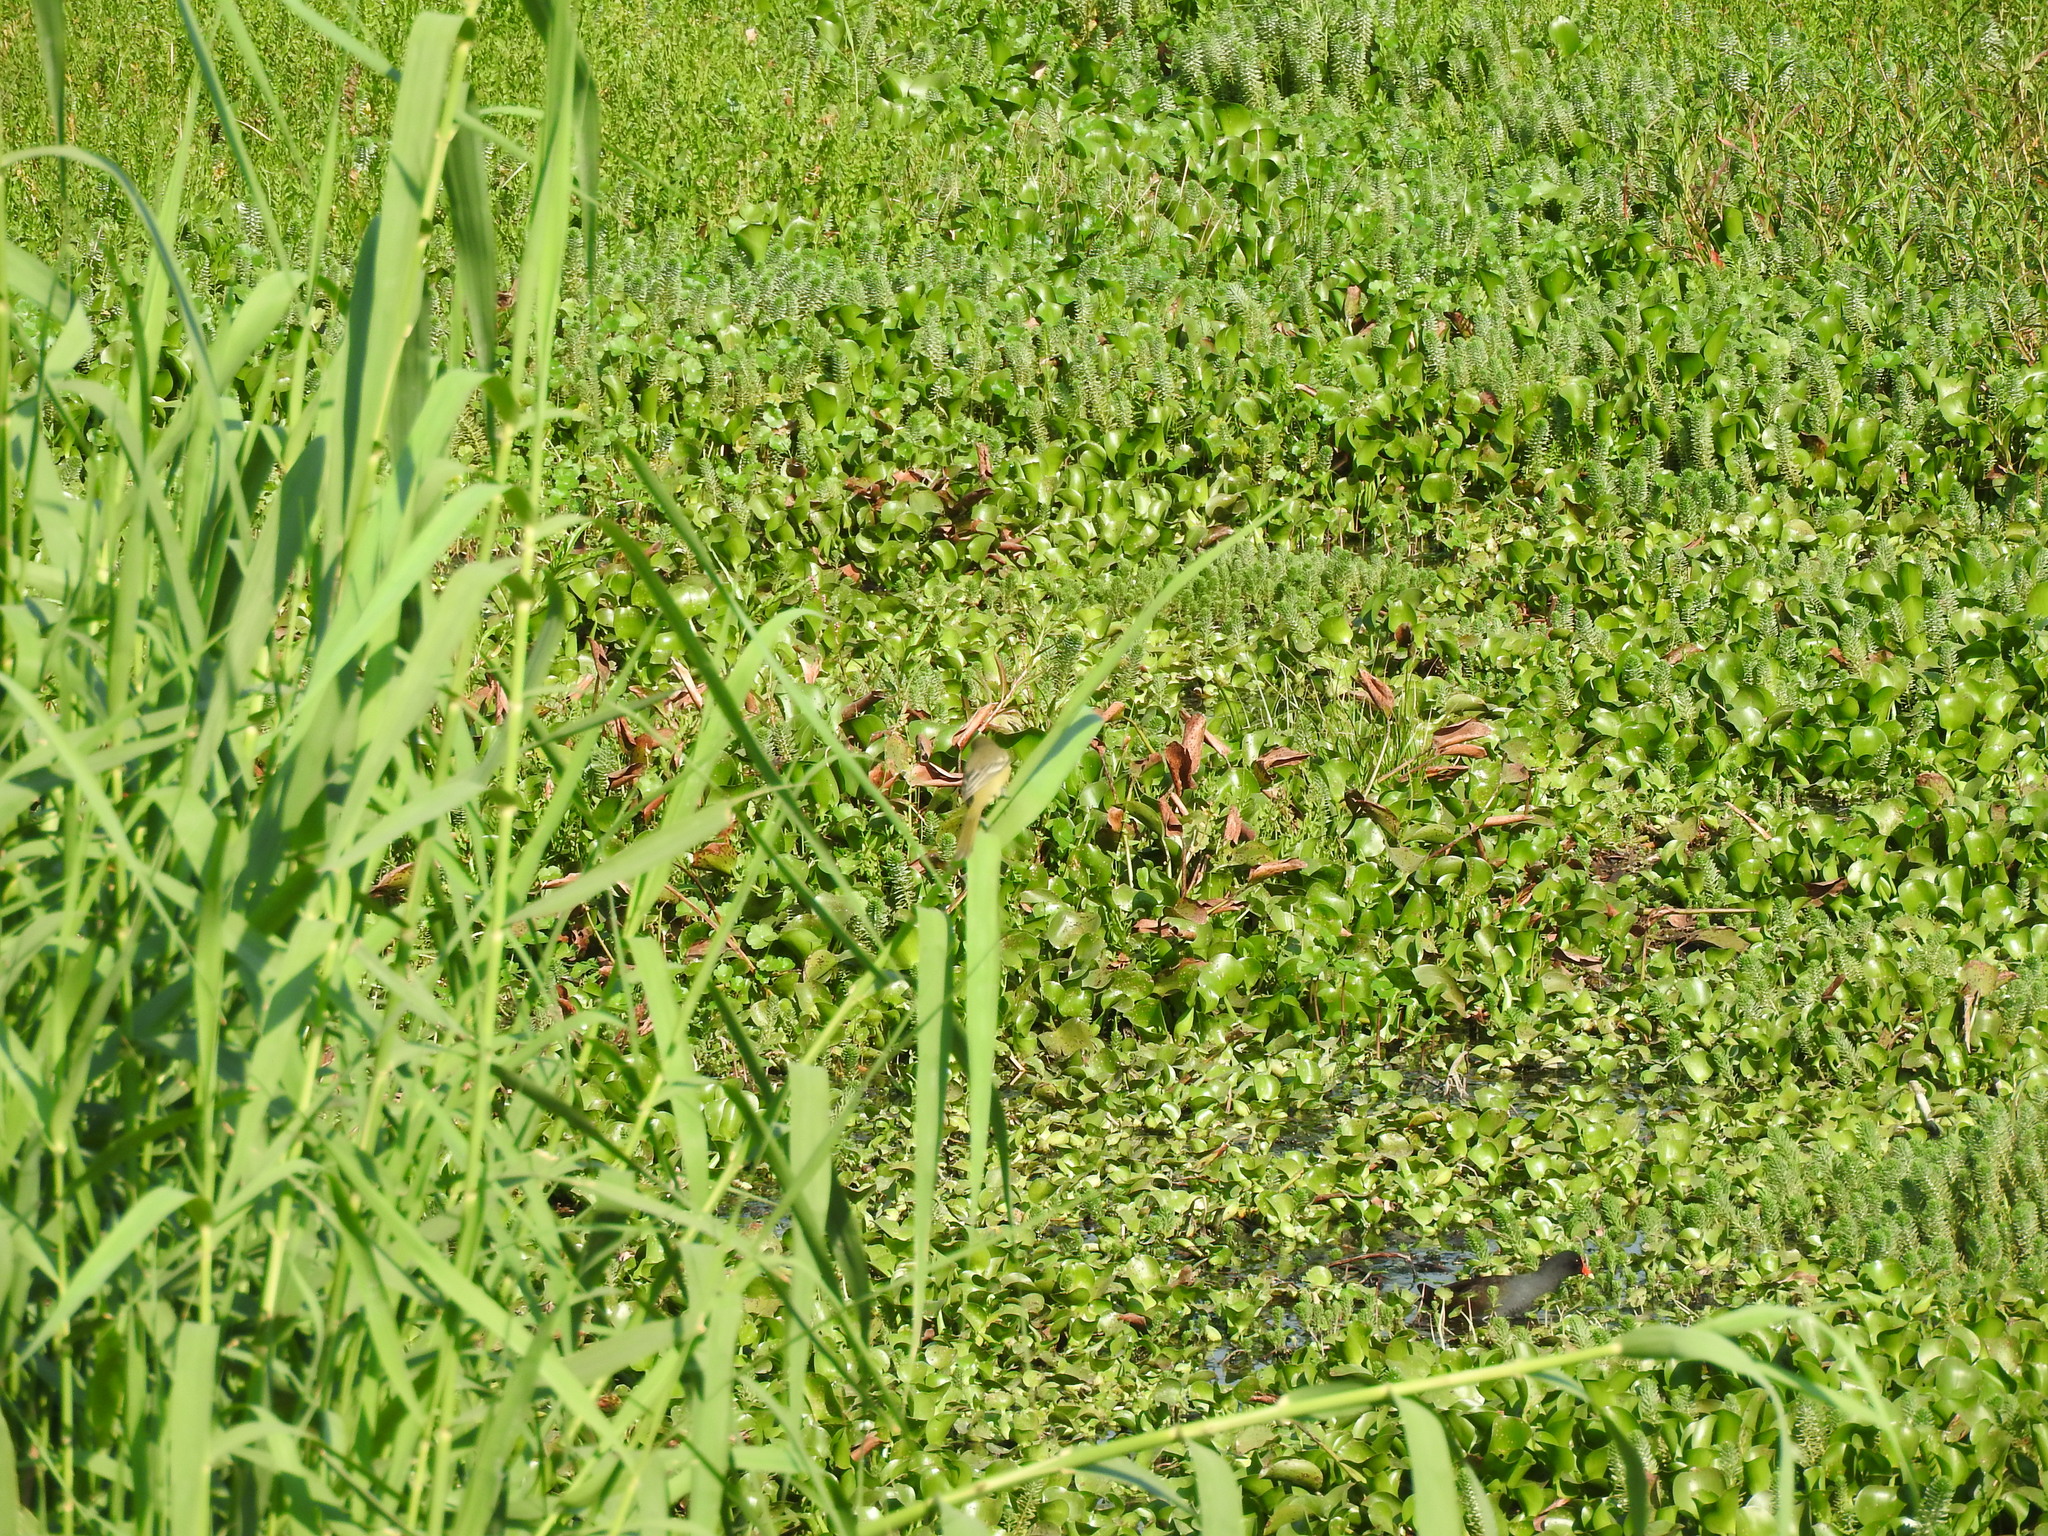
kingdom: Animalia
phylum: Chordata
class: Aves
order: Gruiformes
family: Rallidae
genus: Gallinula
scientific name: Gallinula chloropus
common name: Common moorhen
